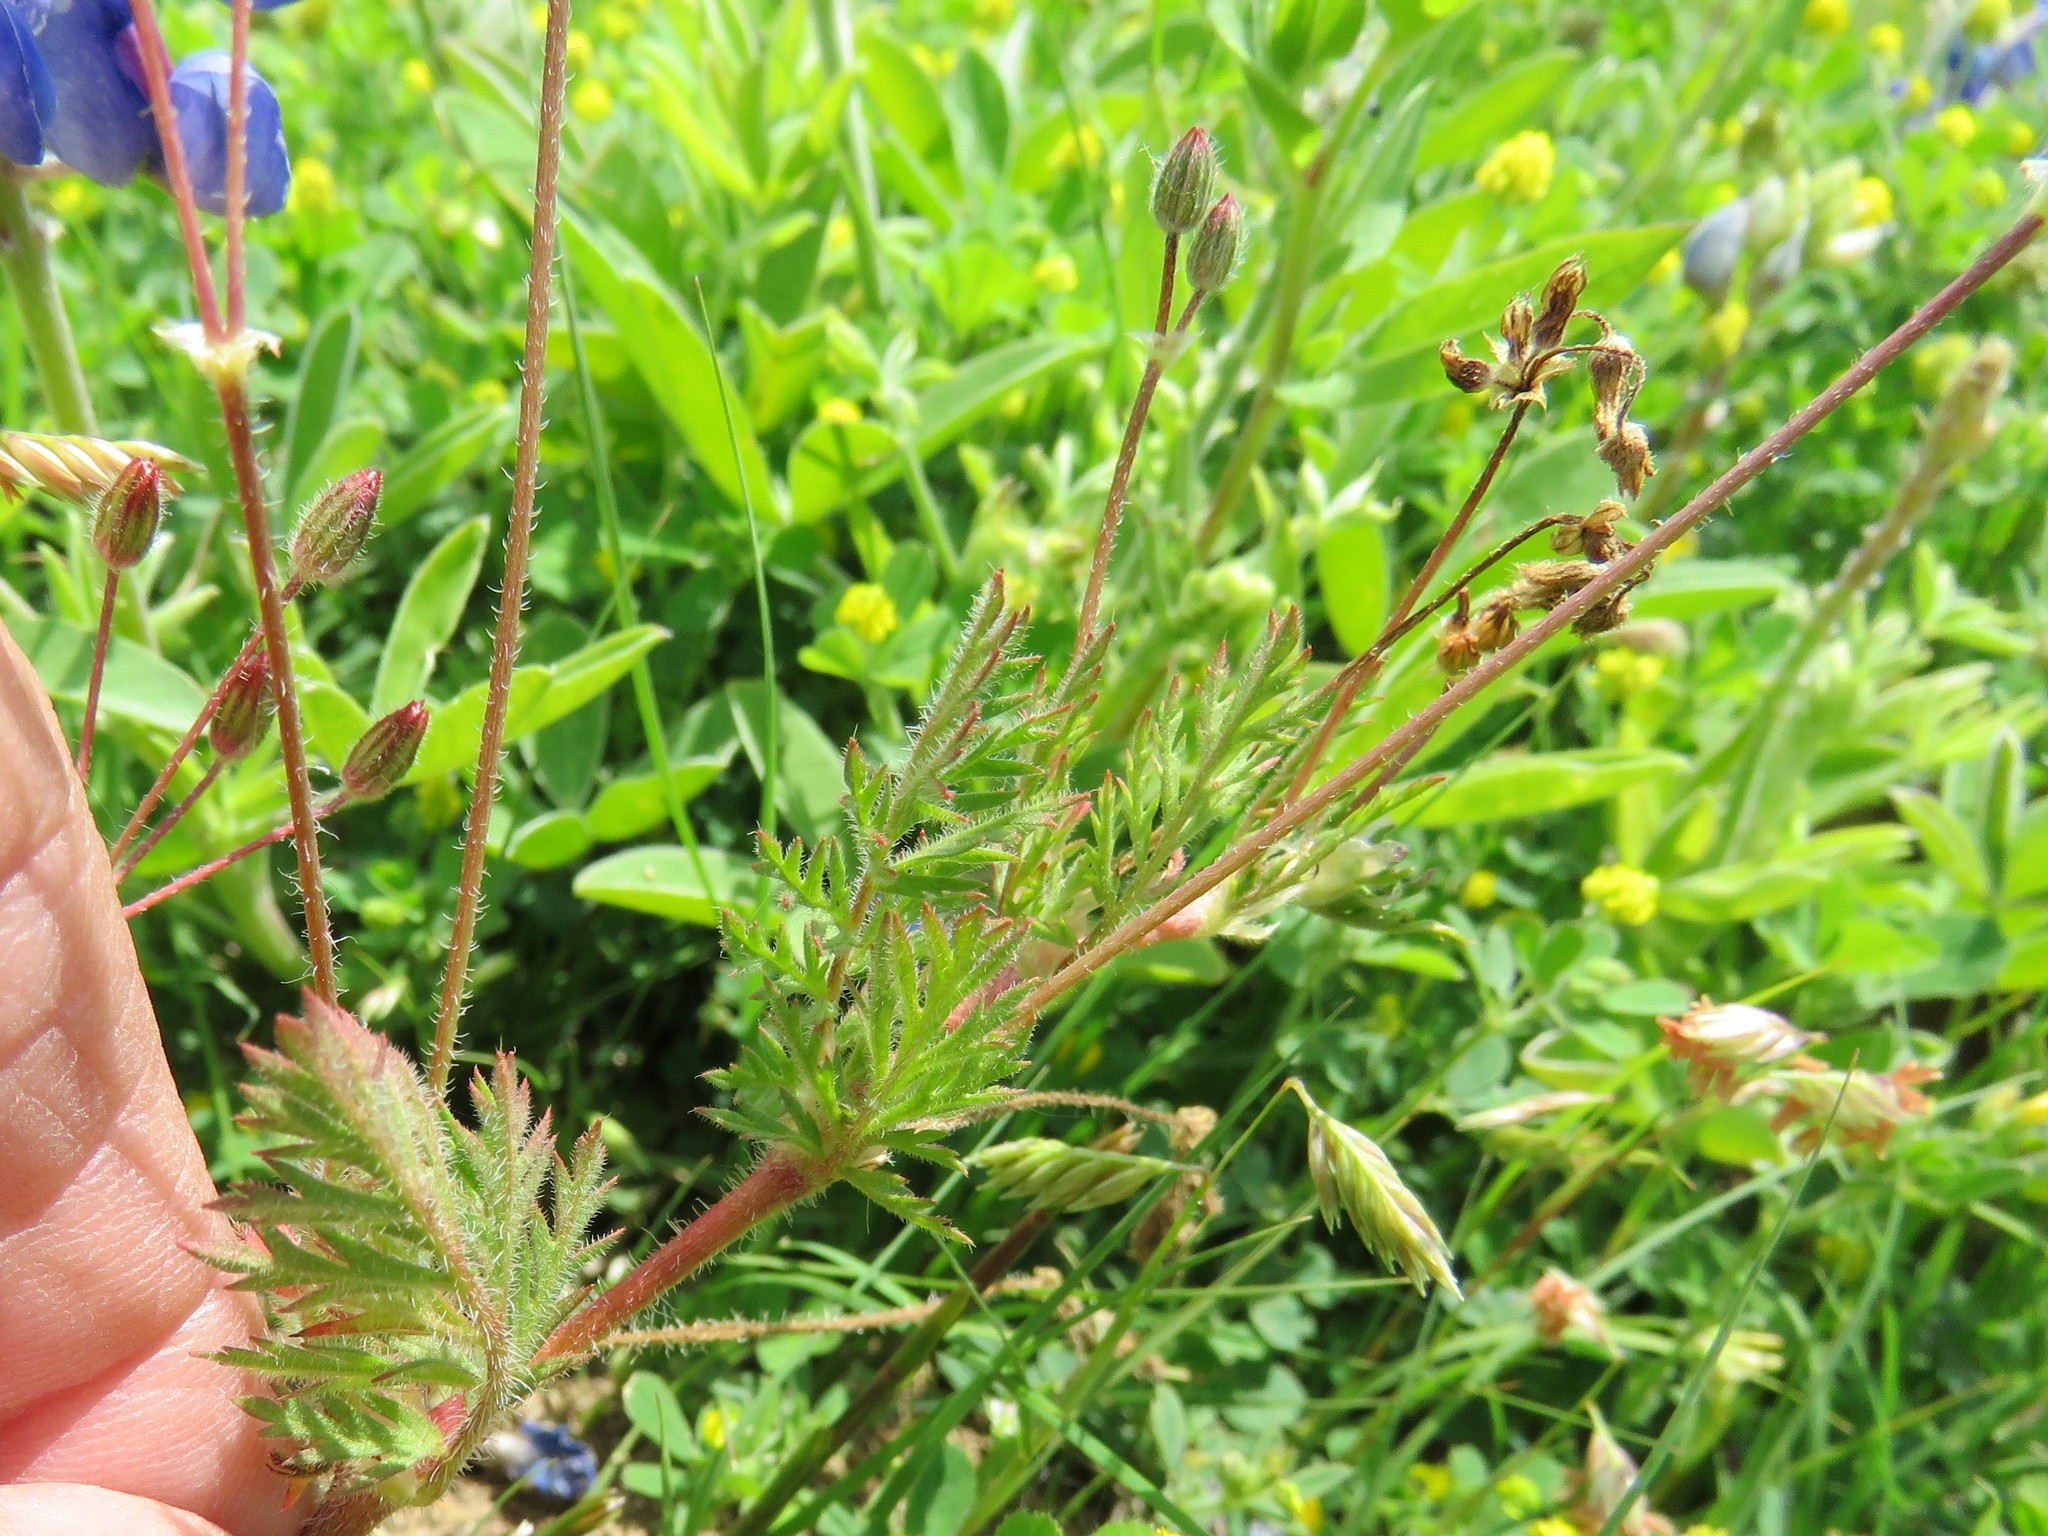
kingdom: Plantae
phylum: Tracheophyta
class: Magnoliopsida
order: Geraniales
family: Geraniaceae
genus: Erodium
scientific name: Erodium cicutarium
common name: Common stork's-bill
